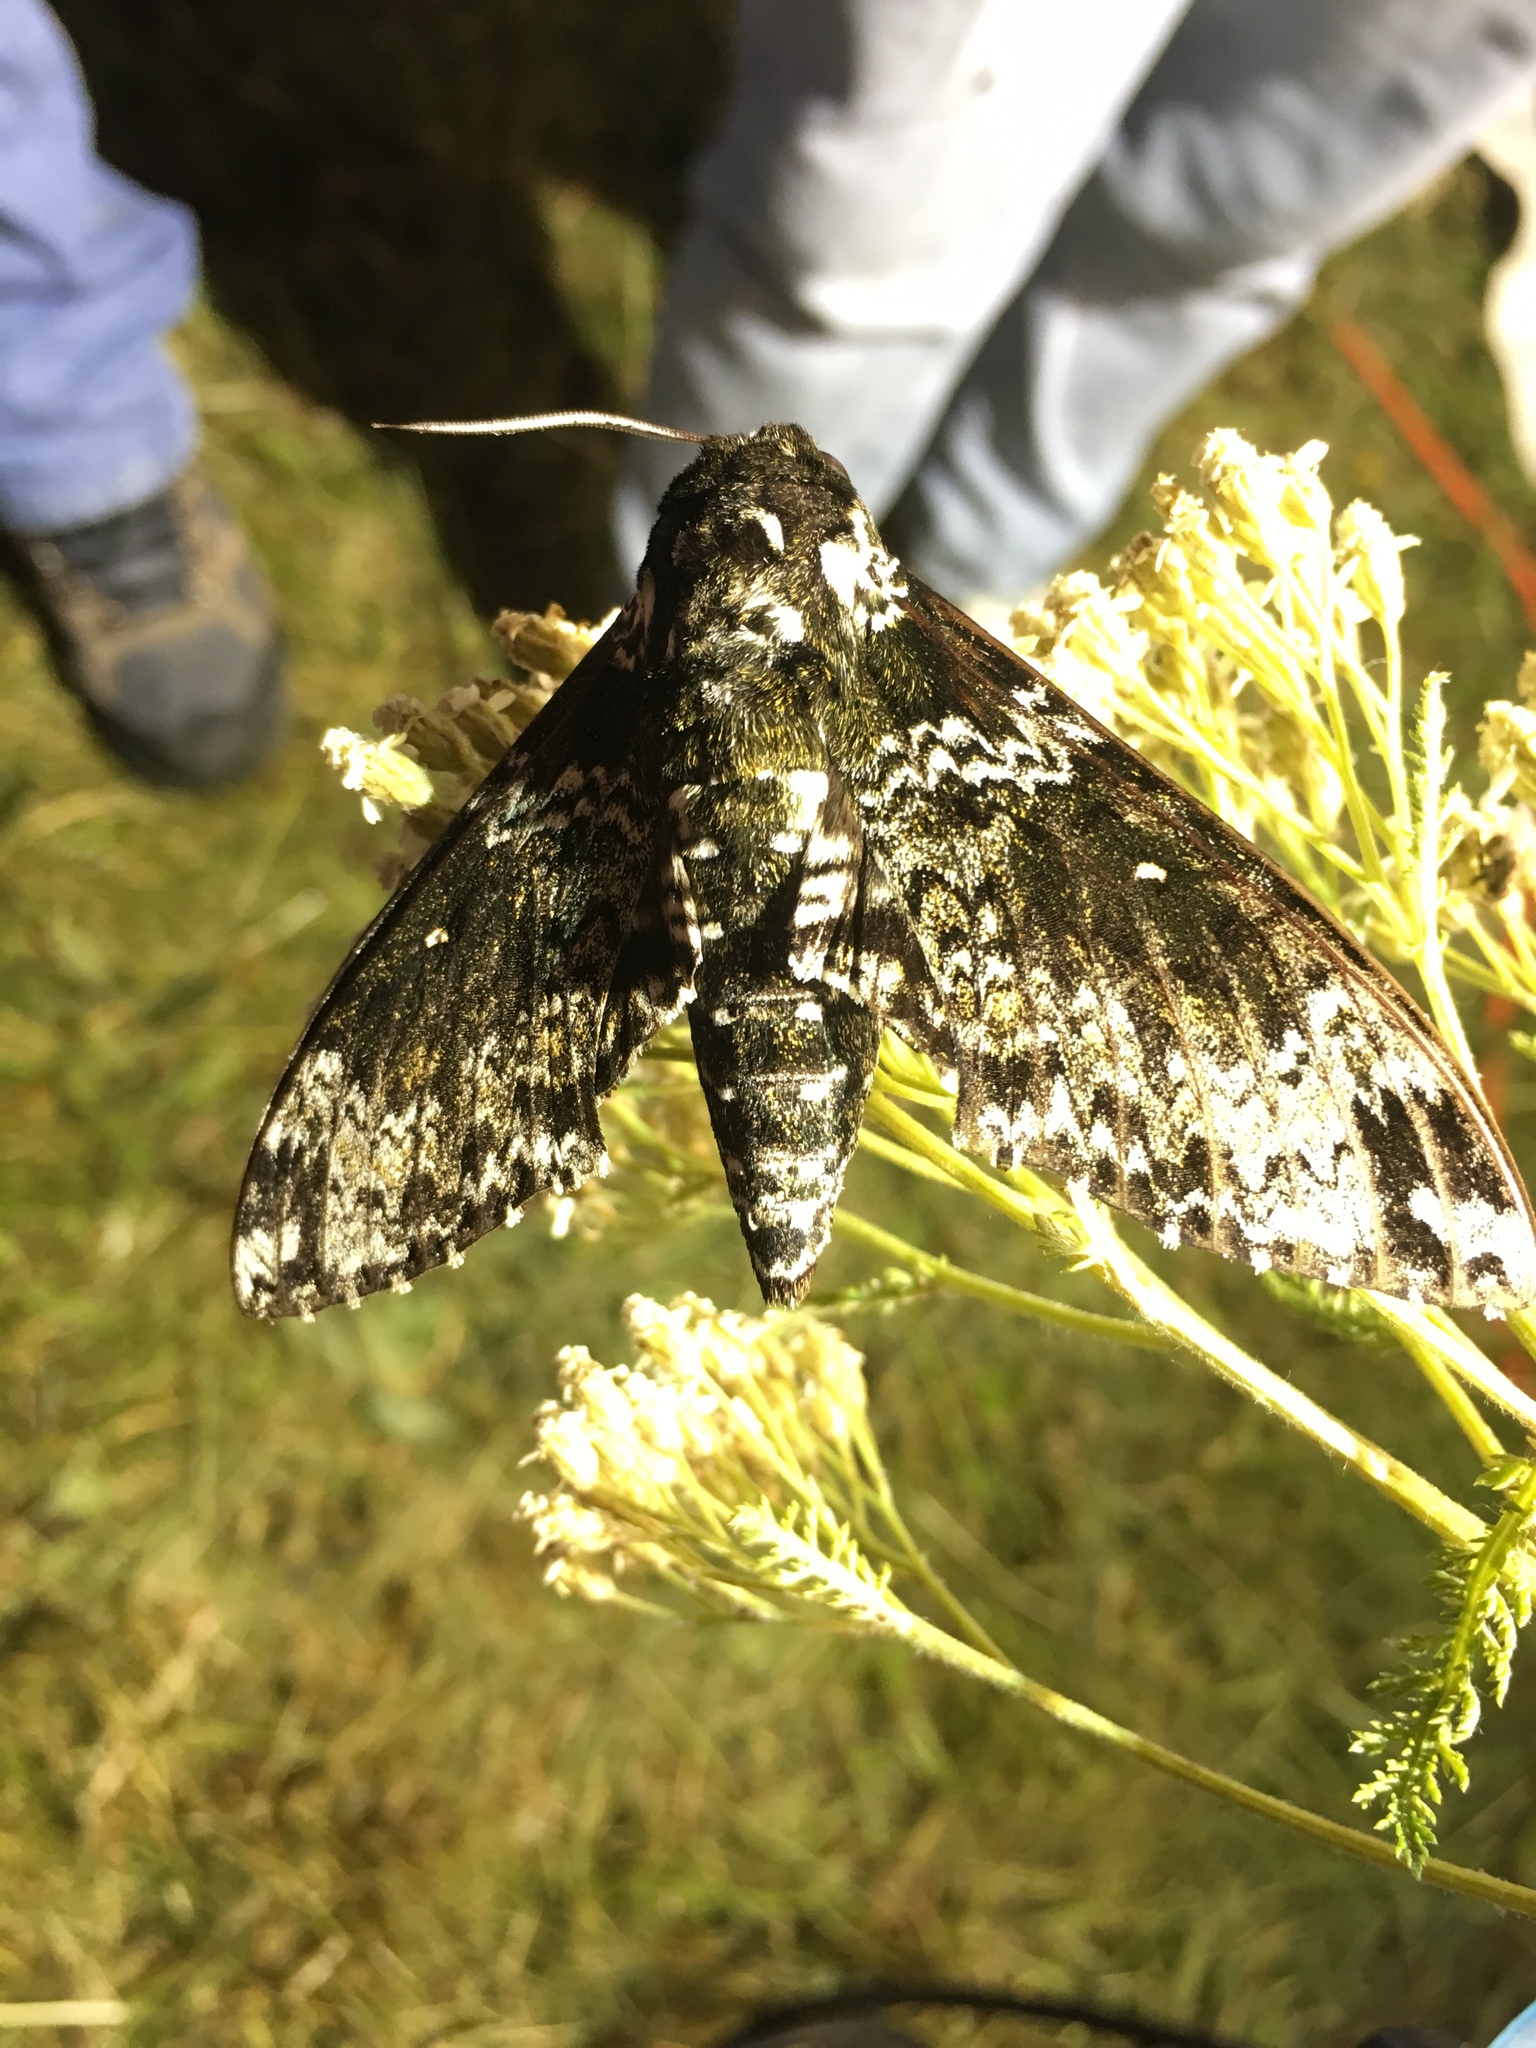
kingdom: Animalia
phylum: Arthropoda
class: Insecta
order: Lepidoptera
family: Sphingidae
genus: Manduca
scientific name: Manduca rustica
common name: Rustic sphinx
